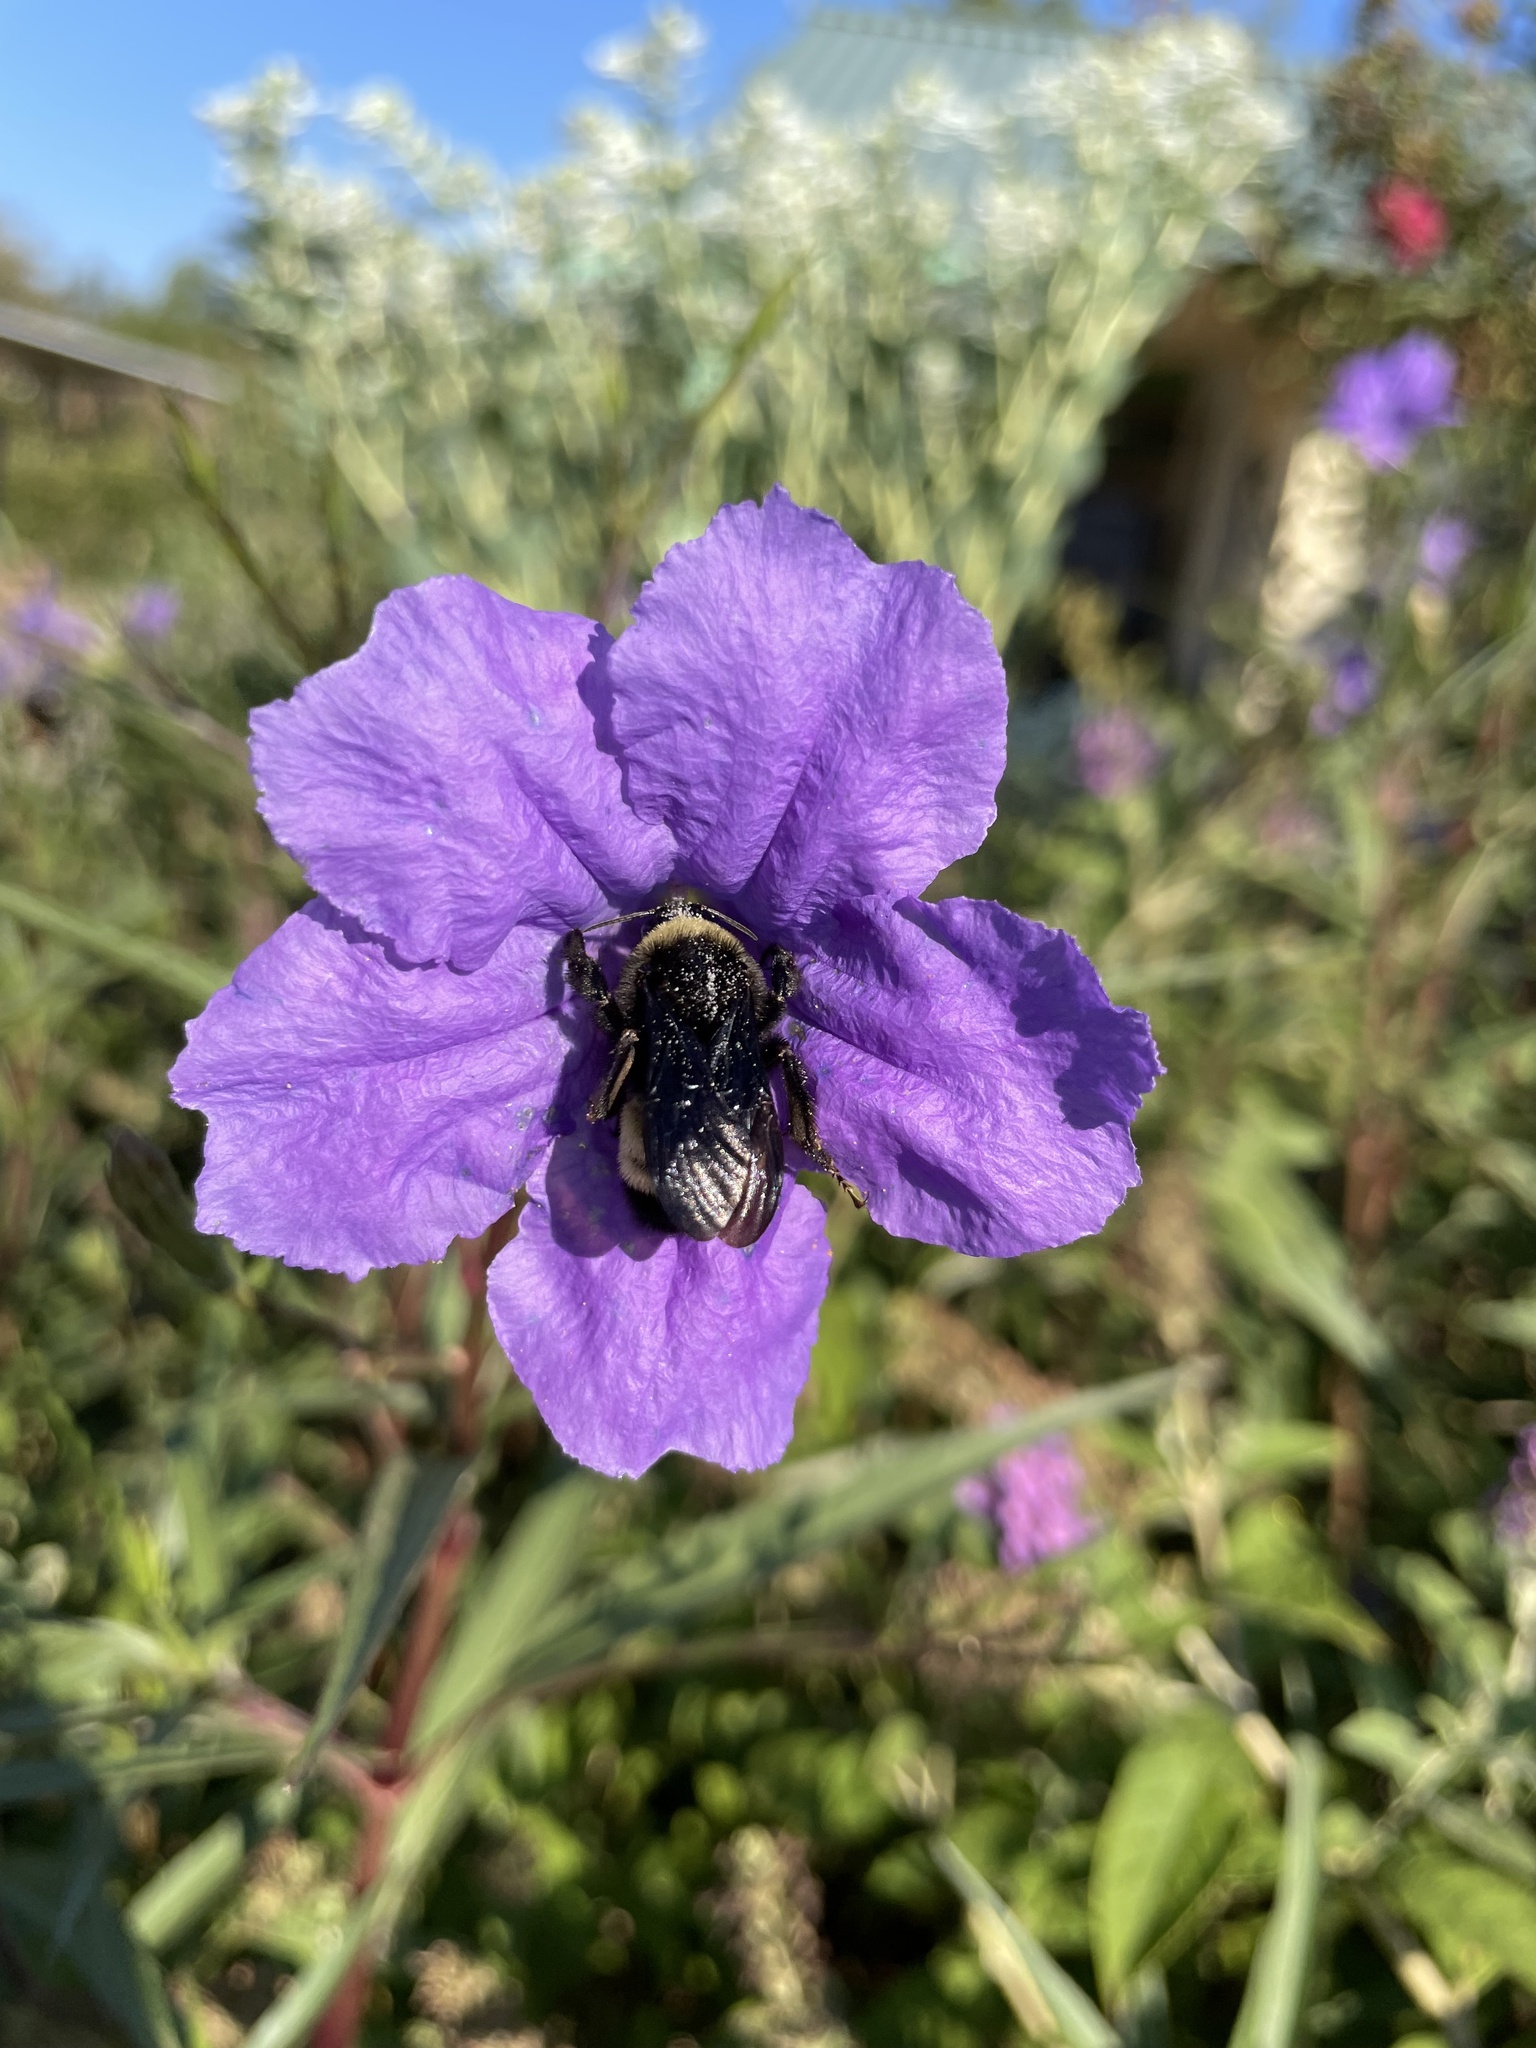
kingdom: Animalia
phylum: Arthropoda
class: Insecta
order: Hymenoptera
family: Apidae
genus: Bombus
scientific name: Bombus pensylvanicus
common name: Bumble bee
